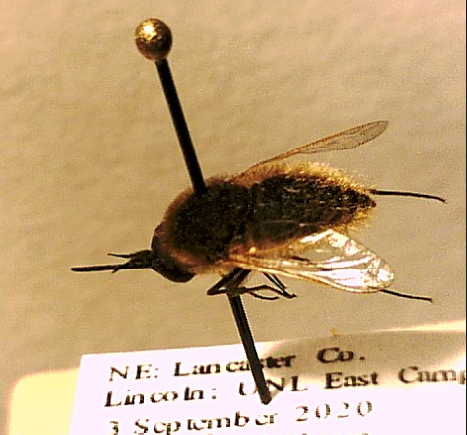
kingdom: Animalia
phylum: Arthropoda
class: Insecta
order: Diptera
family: Bombyliidae
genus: Sparnopolius
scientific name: Sparnopolius confusus
